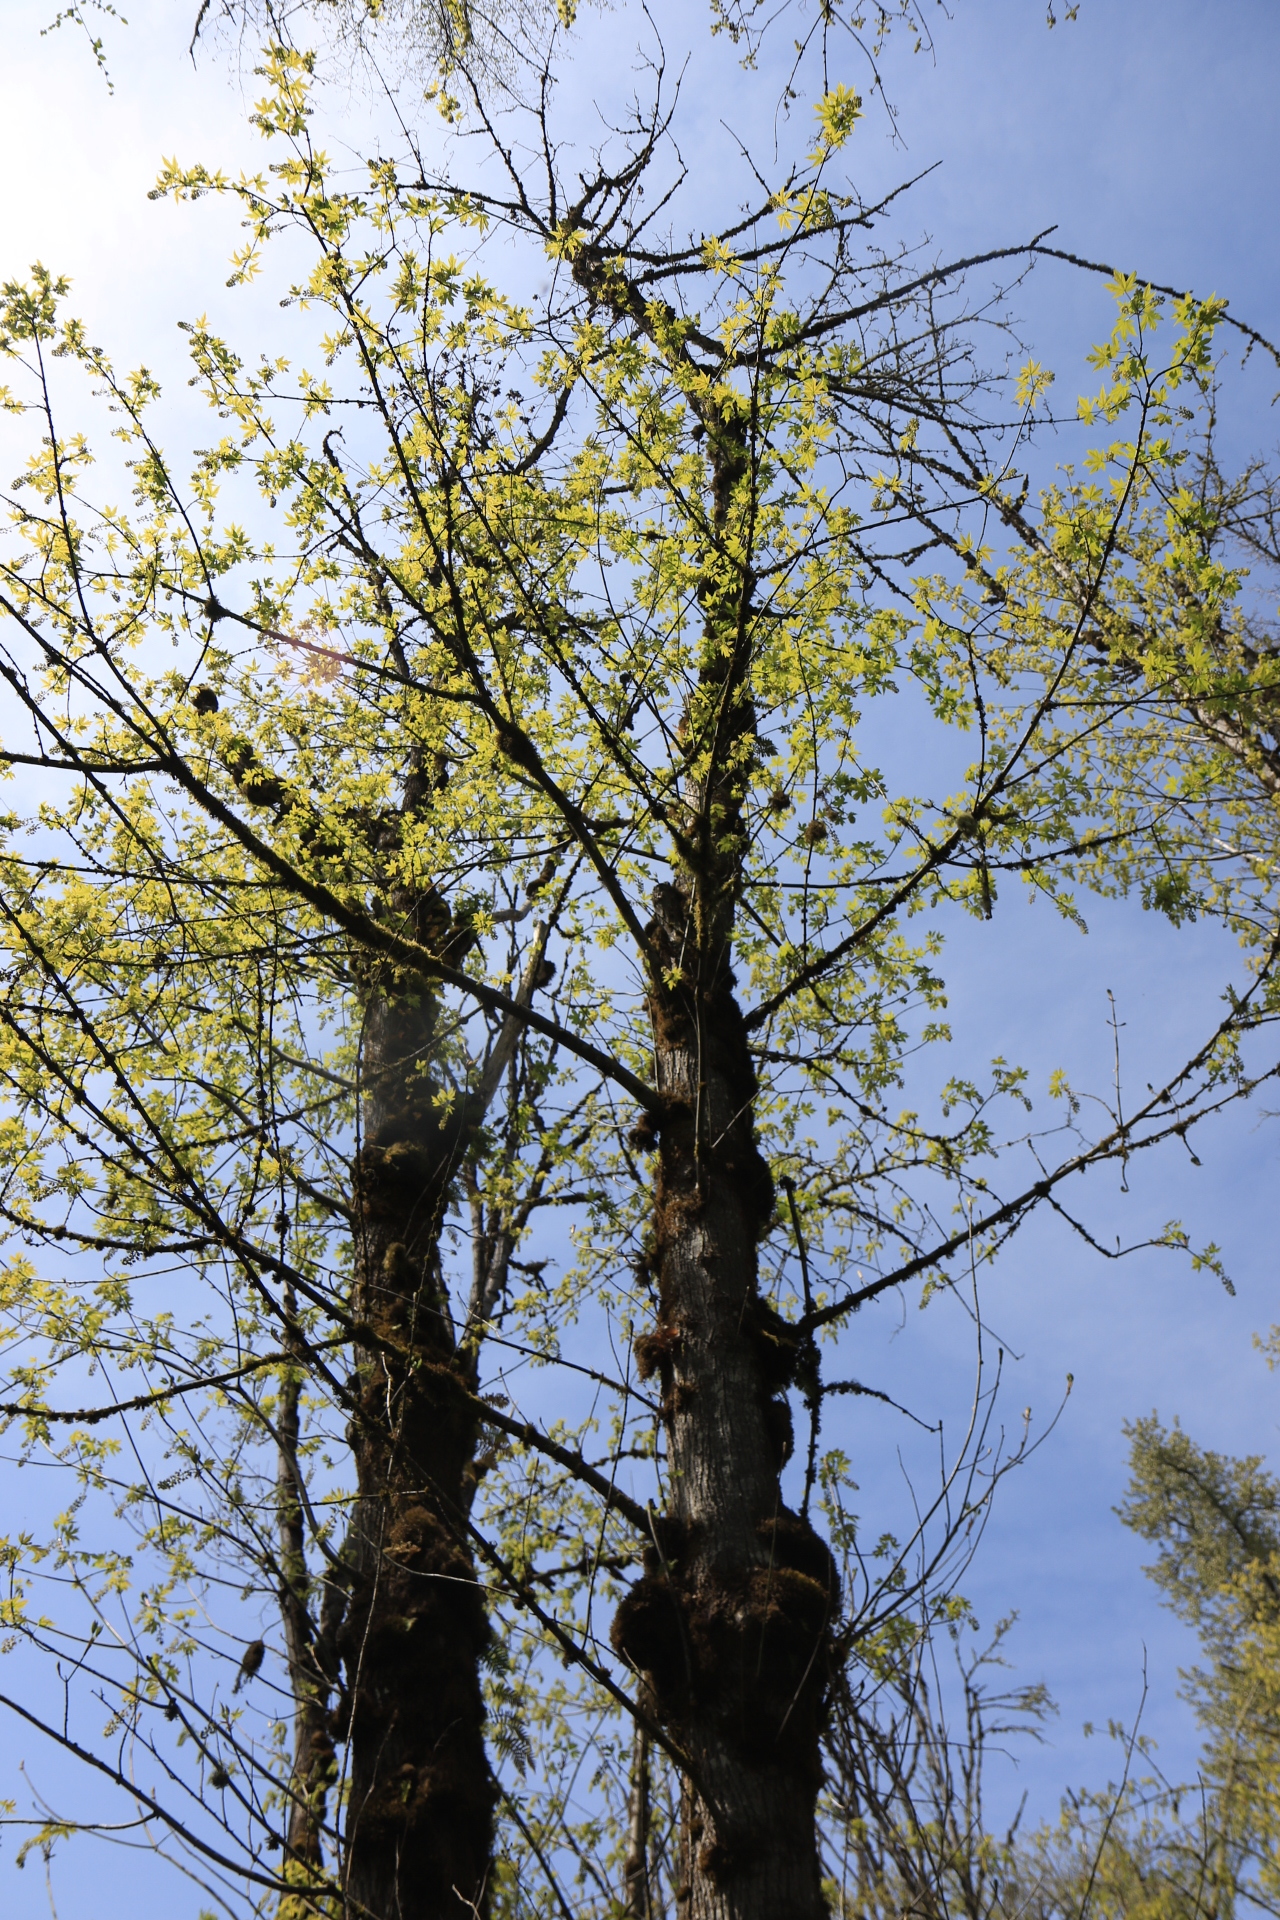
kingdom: Plantae
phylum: Tracheophyta
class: Magnoliopsida
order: Sapindales
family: Sapindaceae
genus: Acer
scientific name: Acer macrophyllum
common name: Oregon maple
